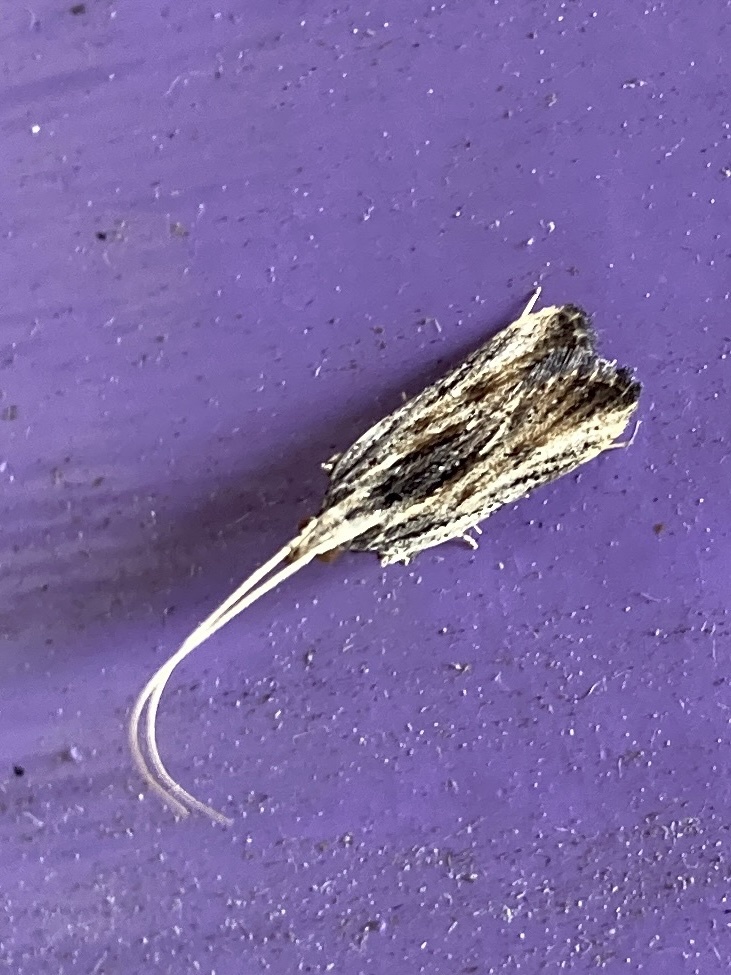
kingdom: Animalia
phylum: Arthropoda
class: Insecta
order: Lepidoptera
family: Lecithoceridae
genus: Sarisophora
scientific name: Sarisophora leucoscia
